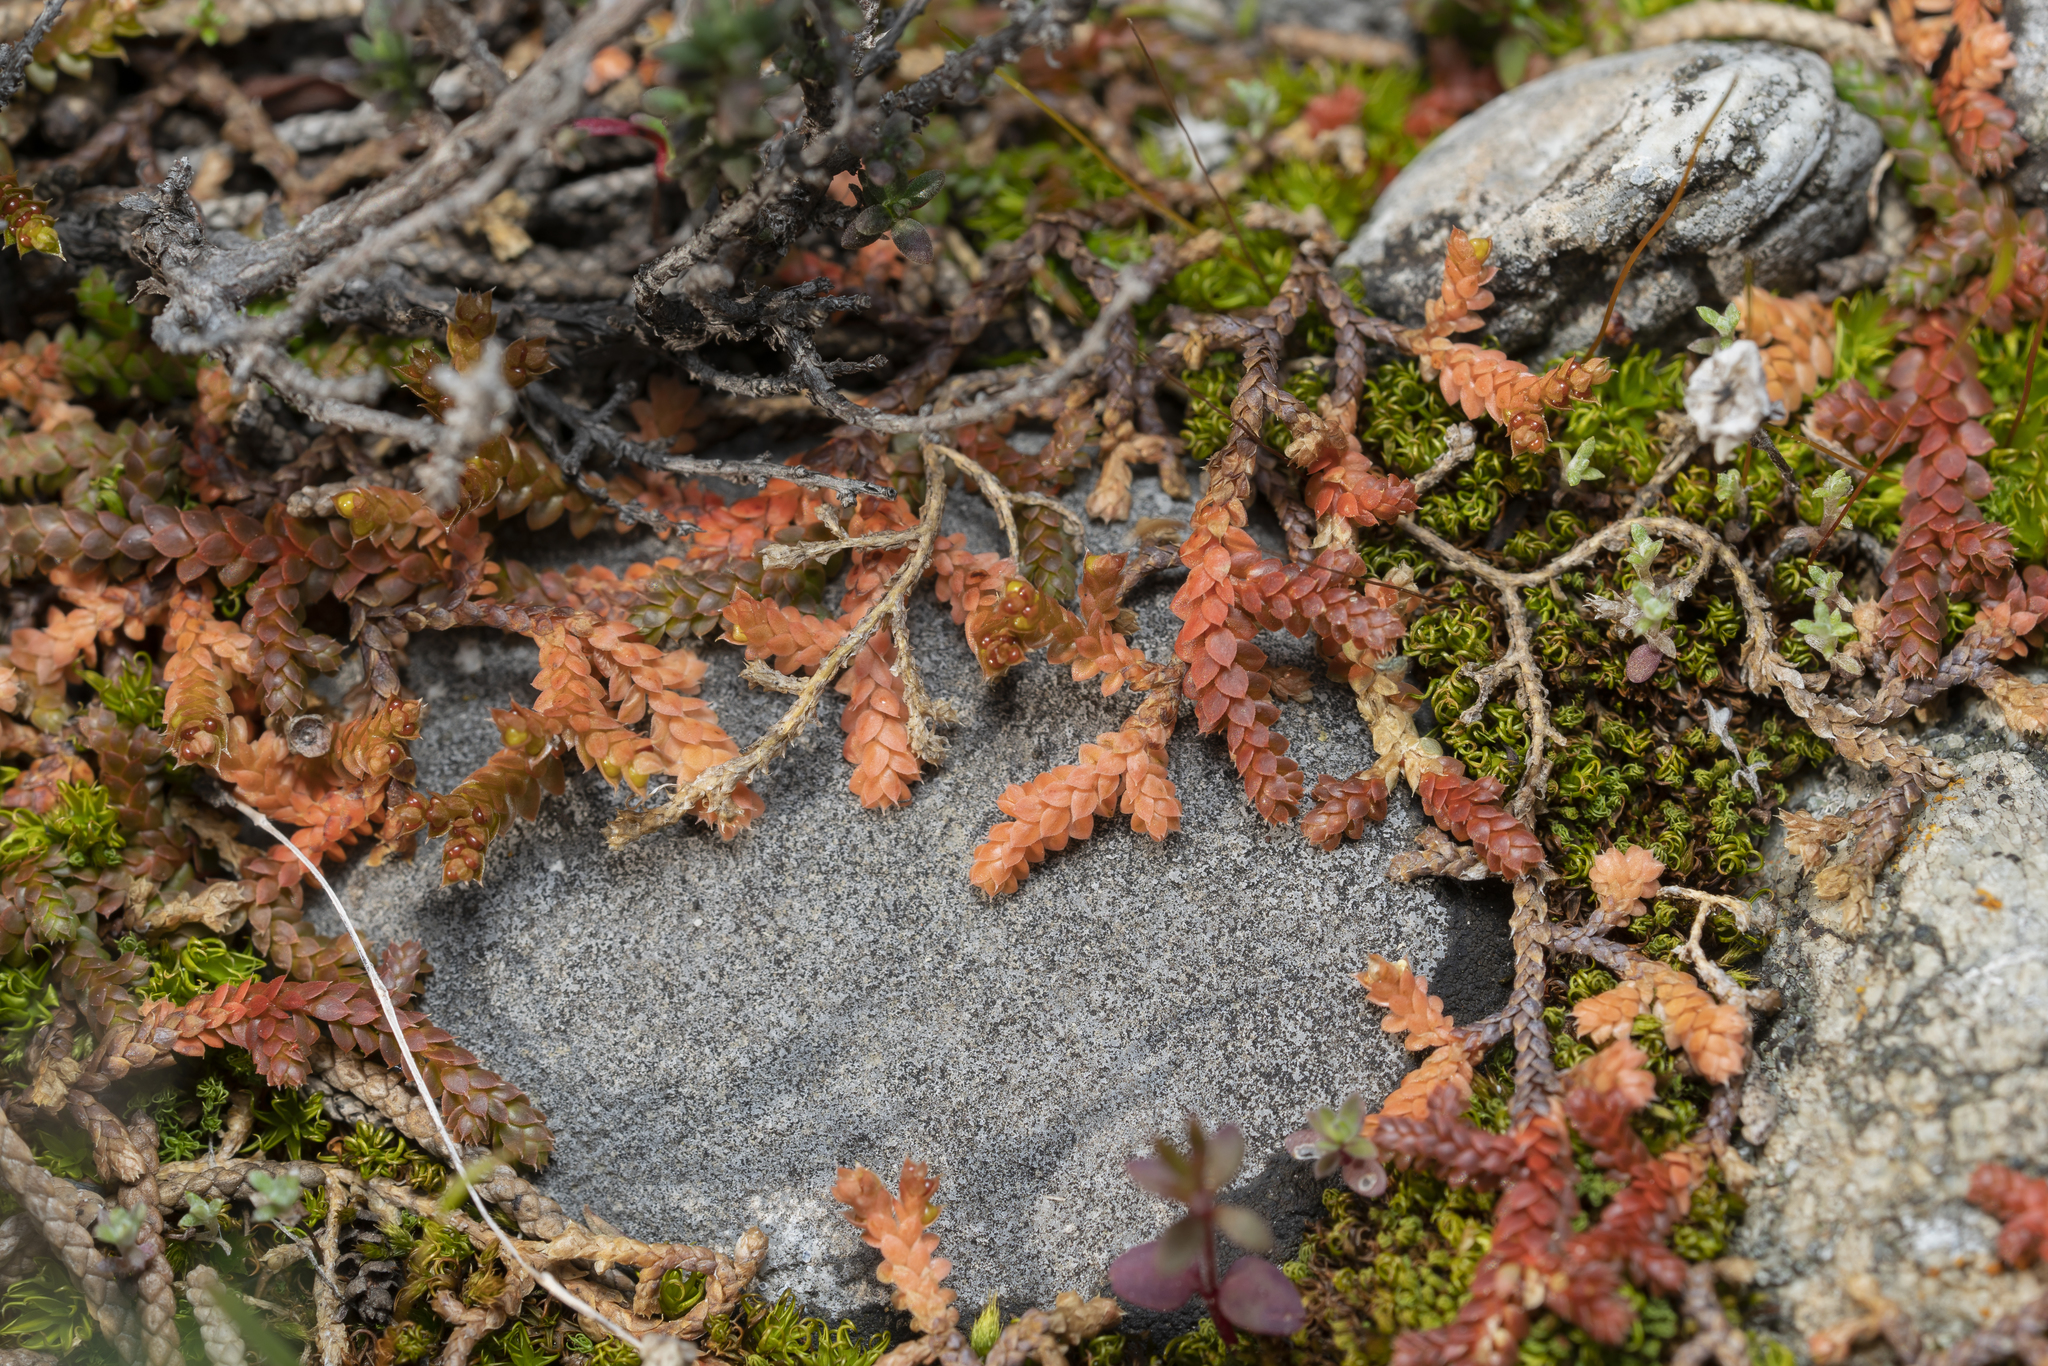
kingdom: Plantae
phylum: Tracheophyta
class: Lycopodiopsida
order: Selaginellales
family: Selaginellaceae
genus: Selaginella
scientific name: Selaginella denticulata
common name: Toothed-leaved clubmoss
